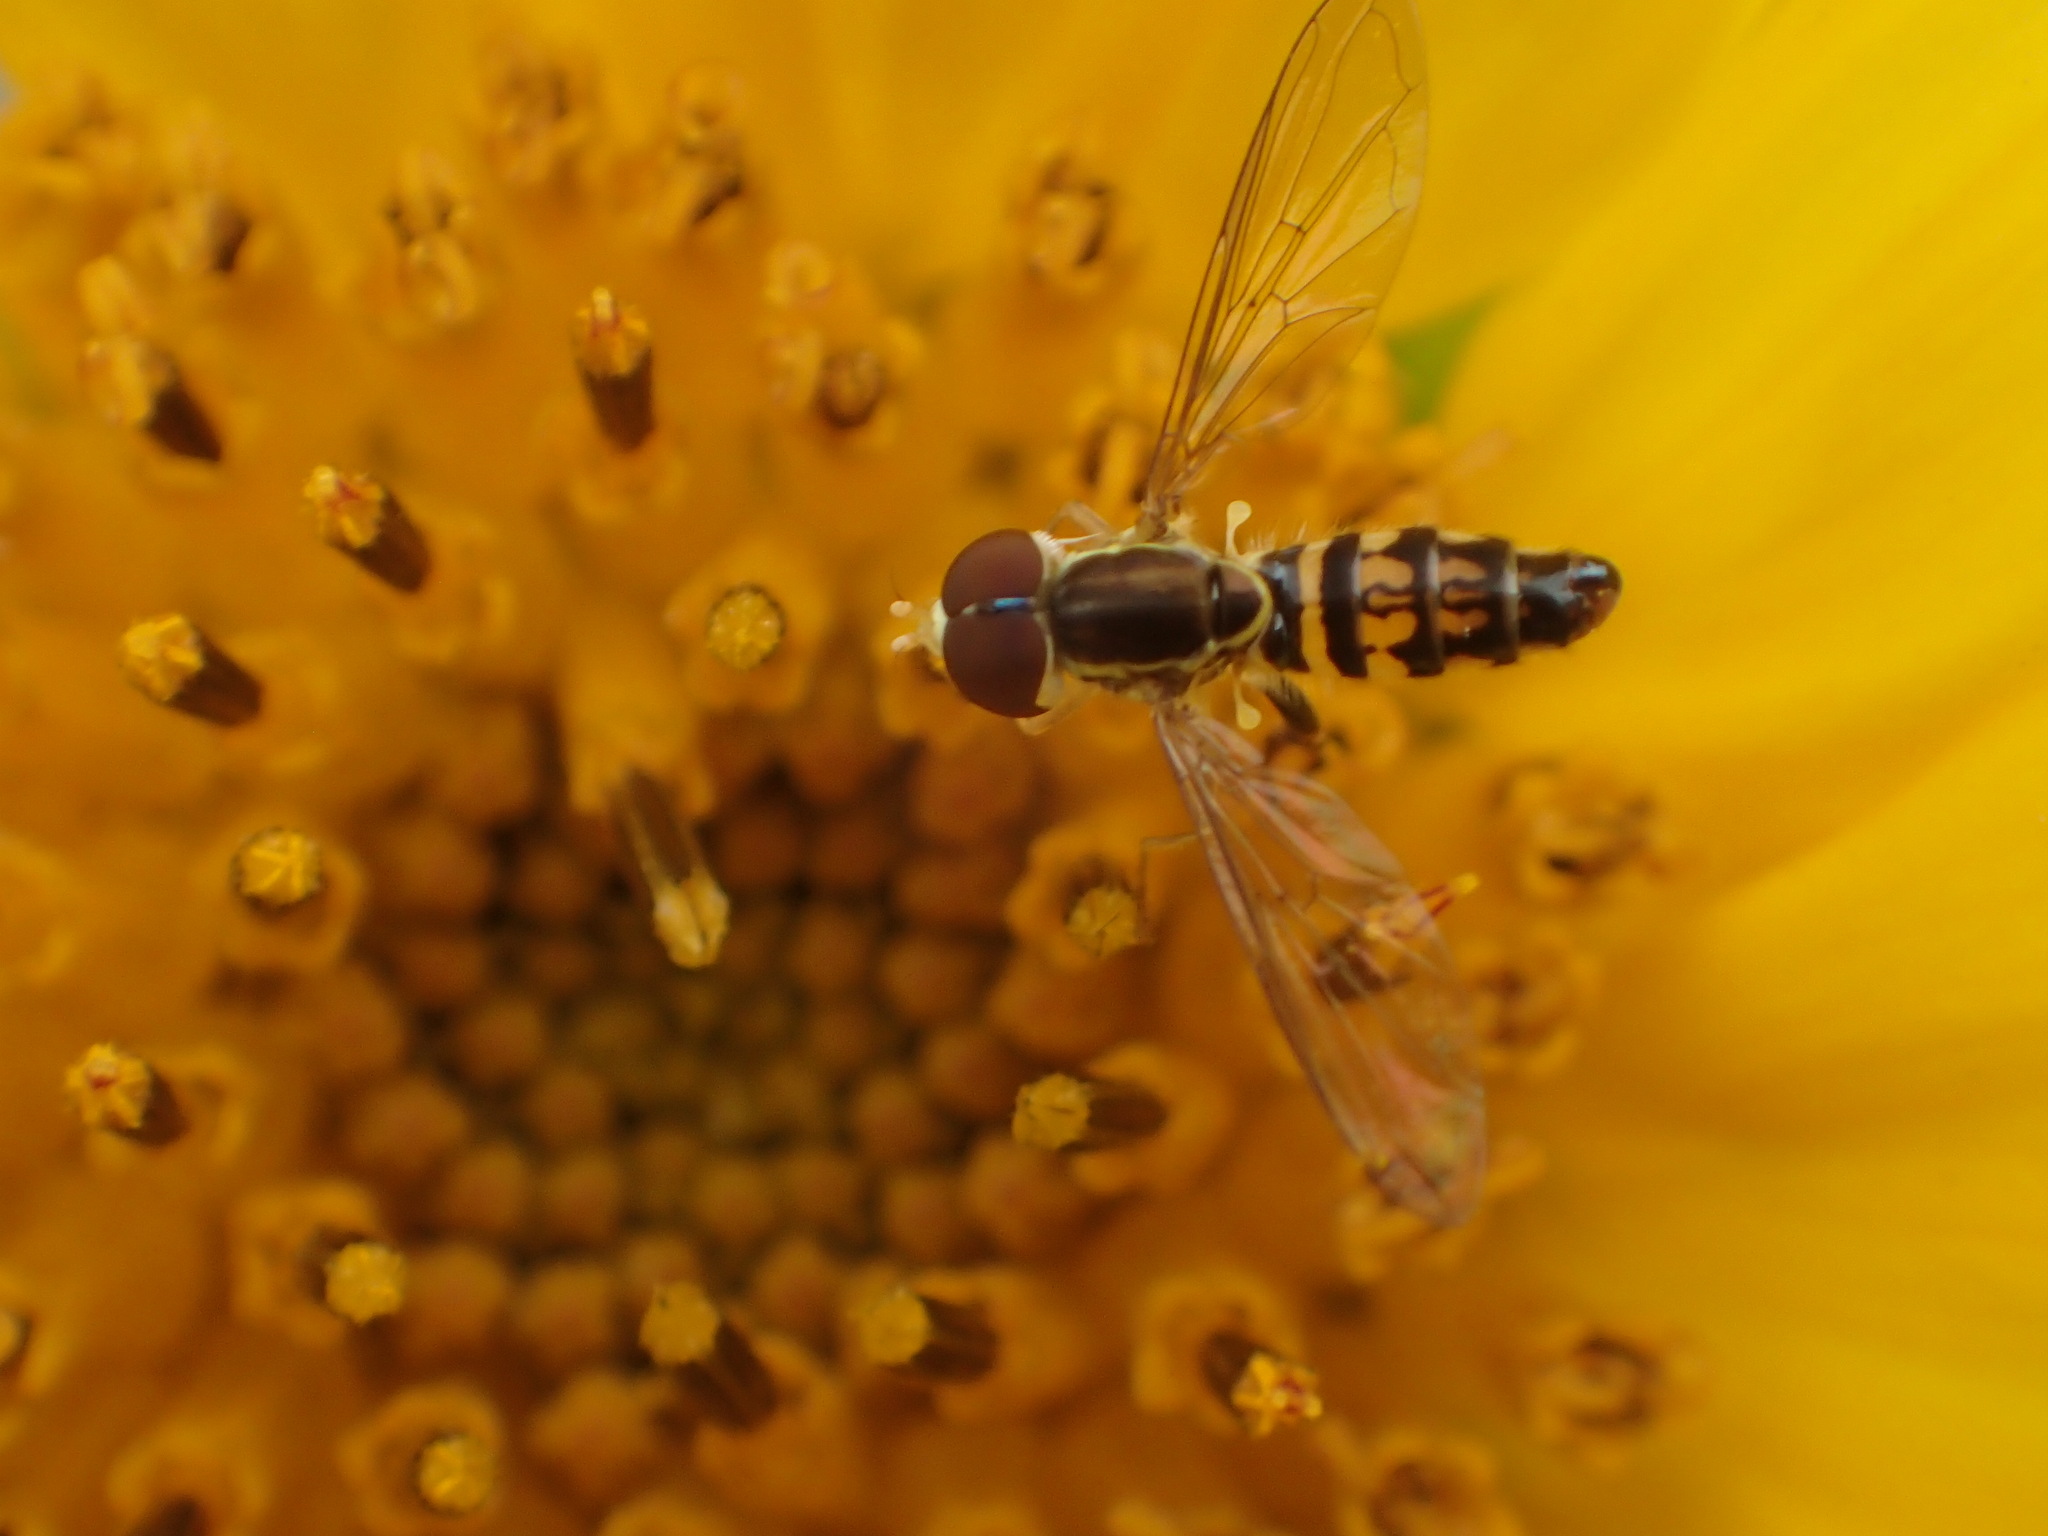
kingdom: Animalia
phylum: Arthropoda
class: Insecta
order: Diptera
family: Syrphidae
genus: Toxomerus
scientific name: Toxomerus geminatus
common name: Eastern calligrapher
